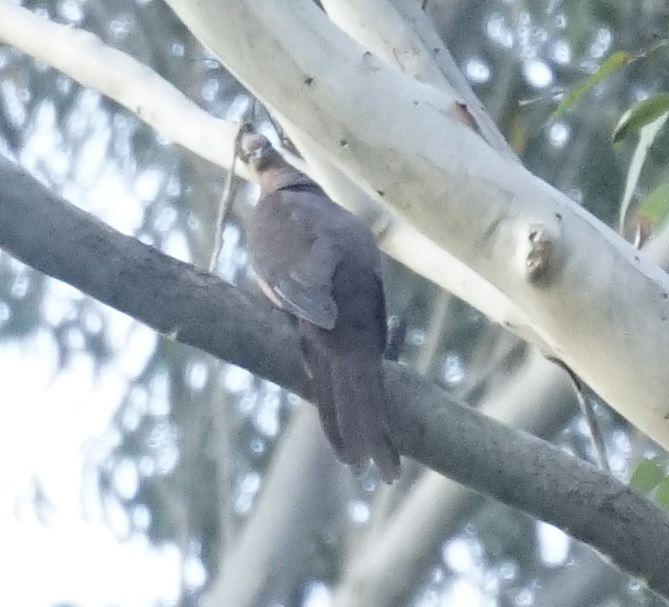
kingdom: Animalia
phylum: Chordata
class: Aves
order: Columbiformes
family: Columbidae
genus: Macropygia
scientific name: Macropygia phasianella
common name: Brown cuckoo-dove
